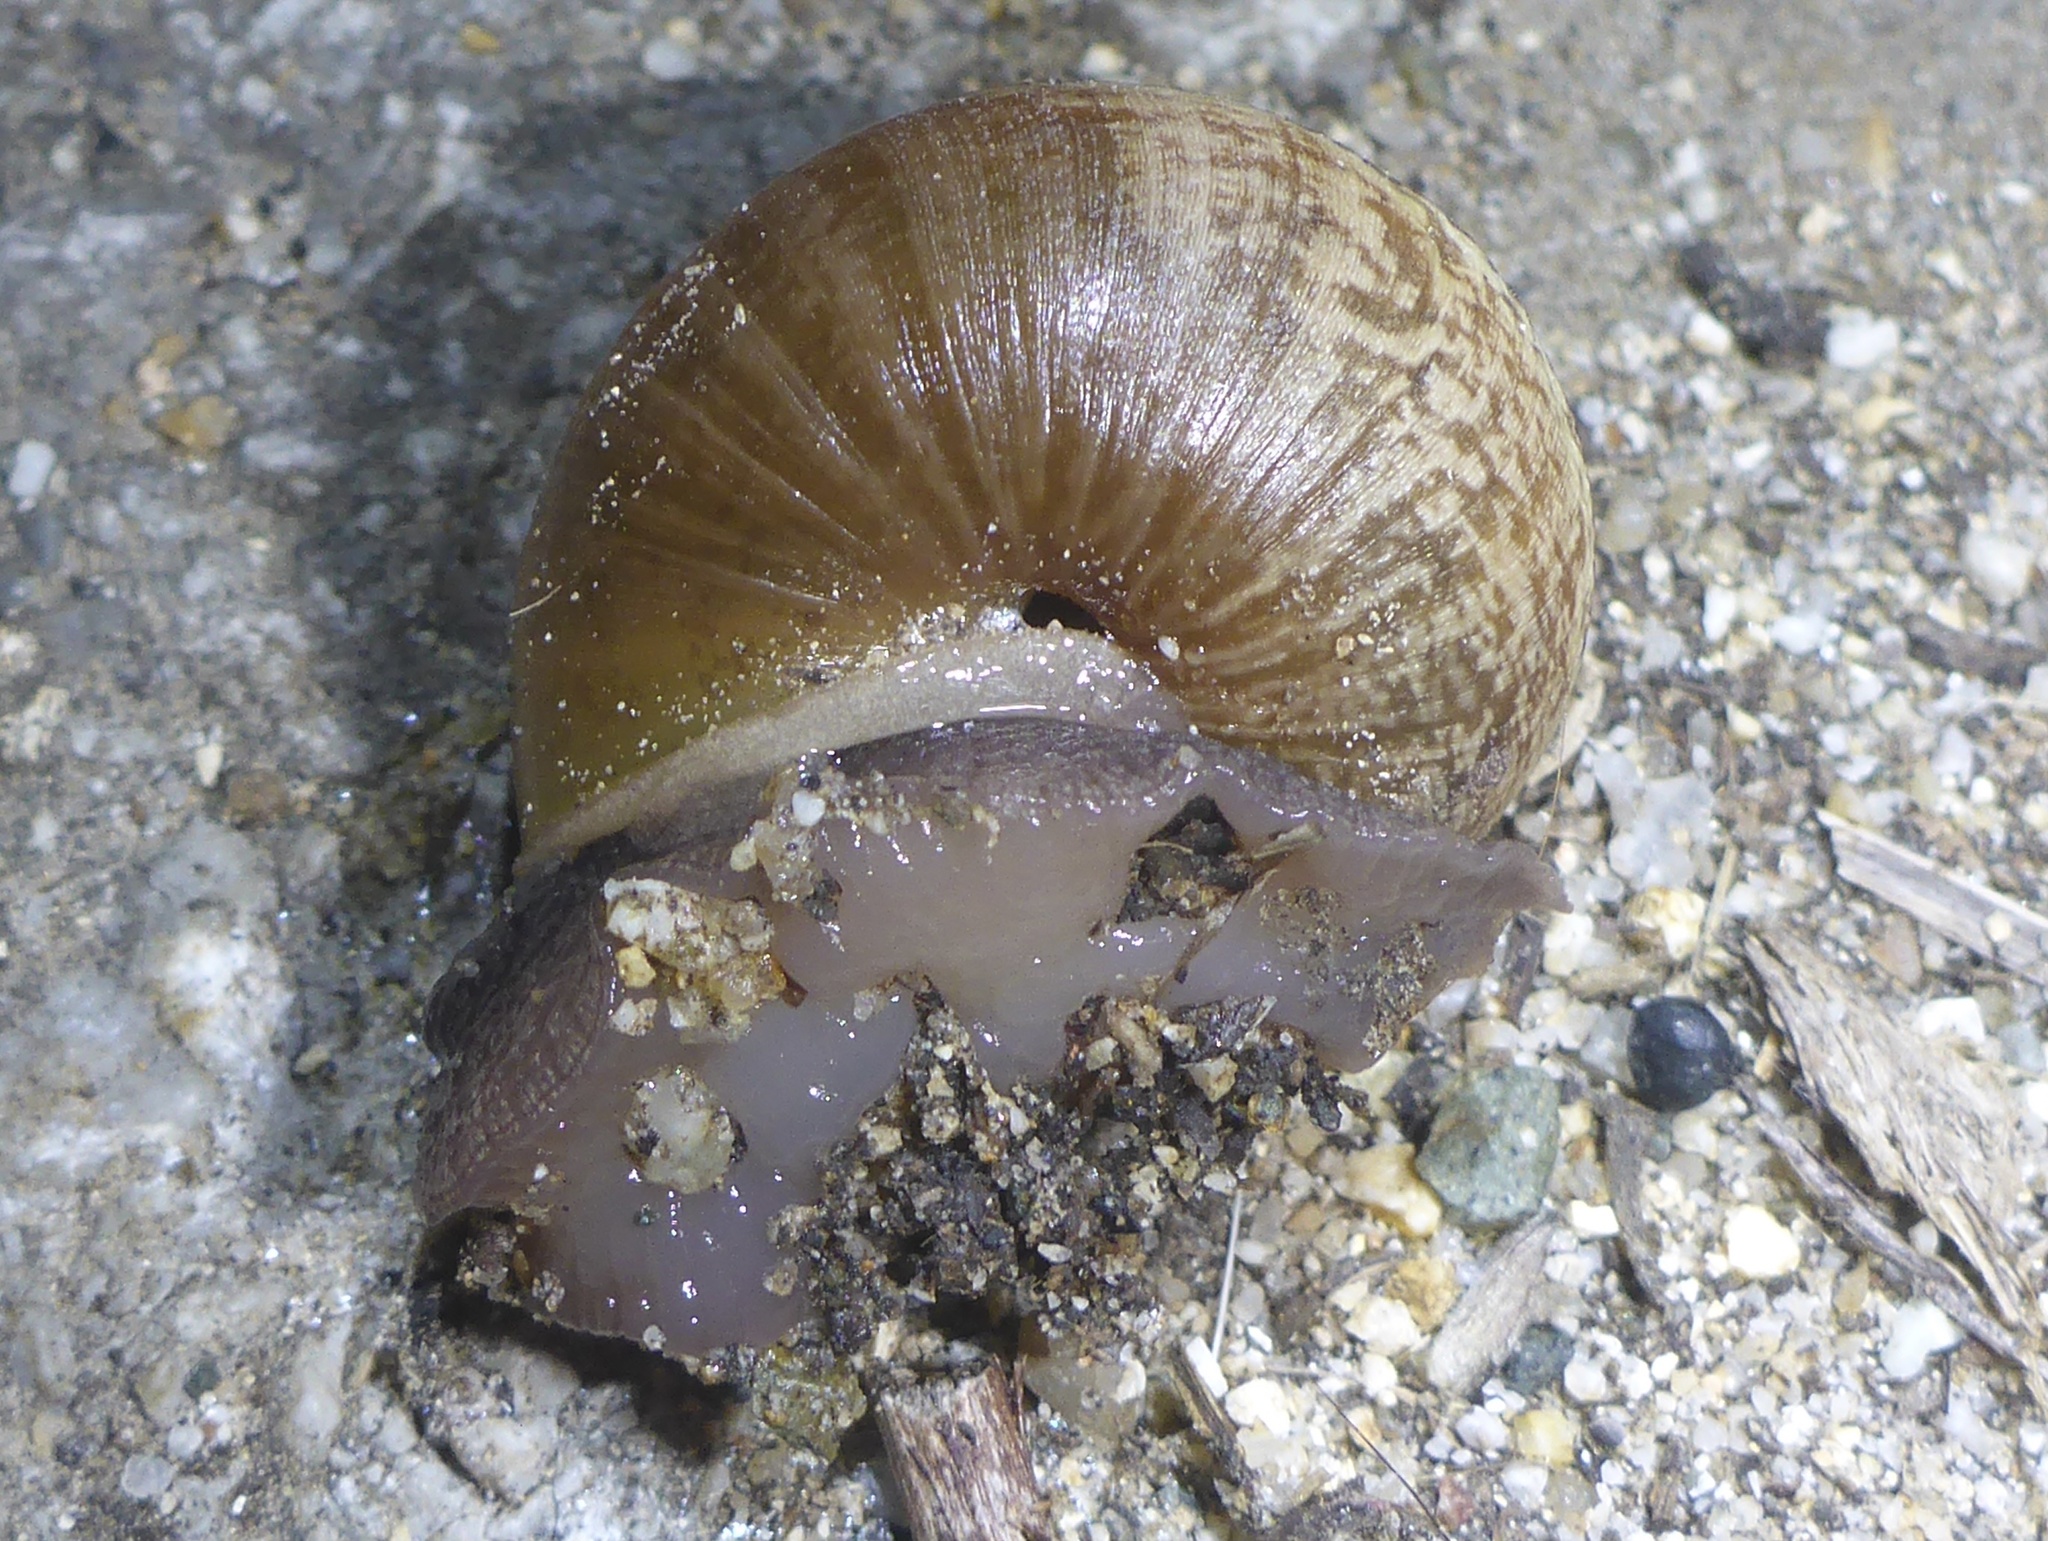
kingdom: Animalia
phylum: Mollusca
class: Gastropoda
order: Stylommatophora
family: Xanthonychidae
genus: Helminthoglypta
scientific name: Helminthoglypta nickliniana
